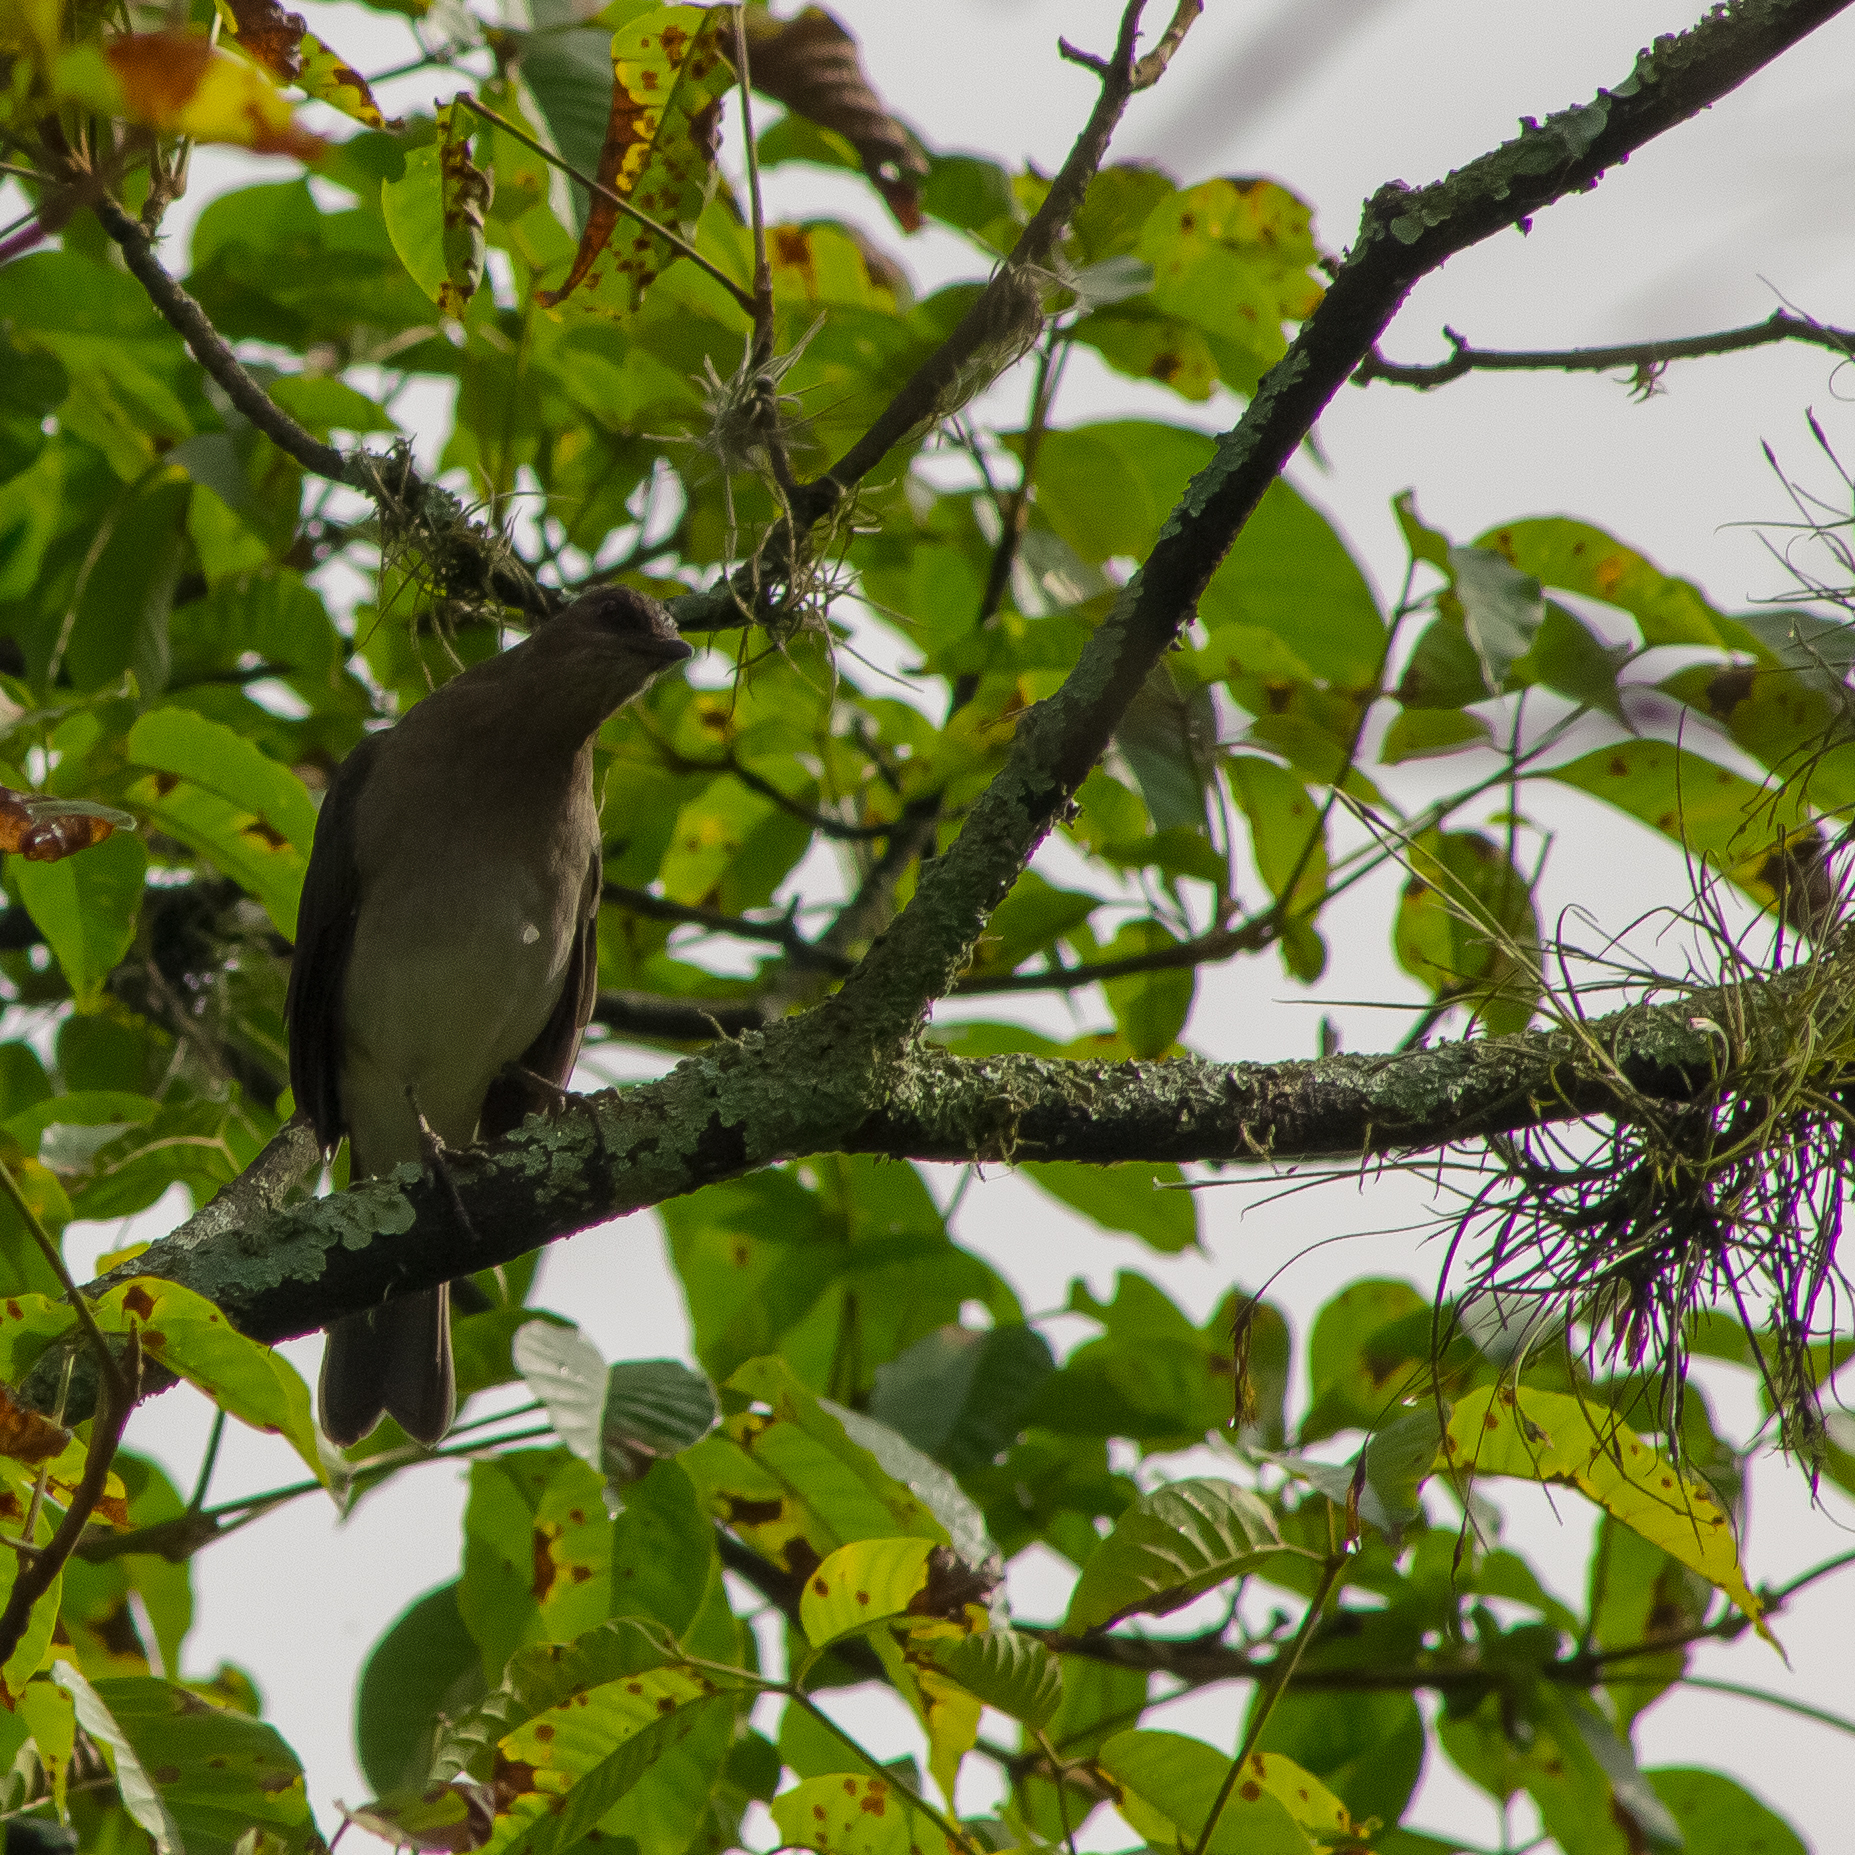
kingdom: Animalia
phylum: Chordata
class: Aves
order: Passeriformes
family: Turdidae
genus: Turdus
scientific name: Turdus ignobilis
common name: Black-billed thrush
